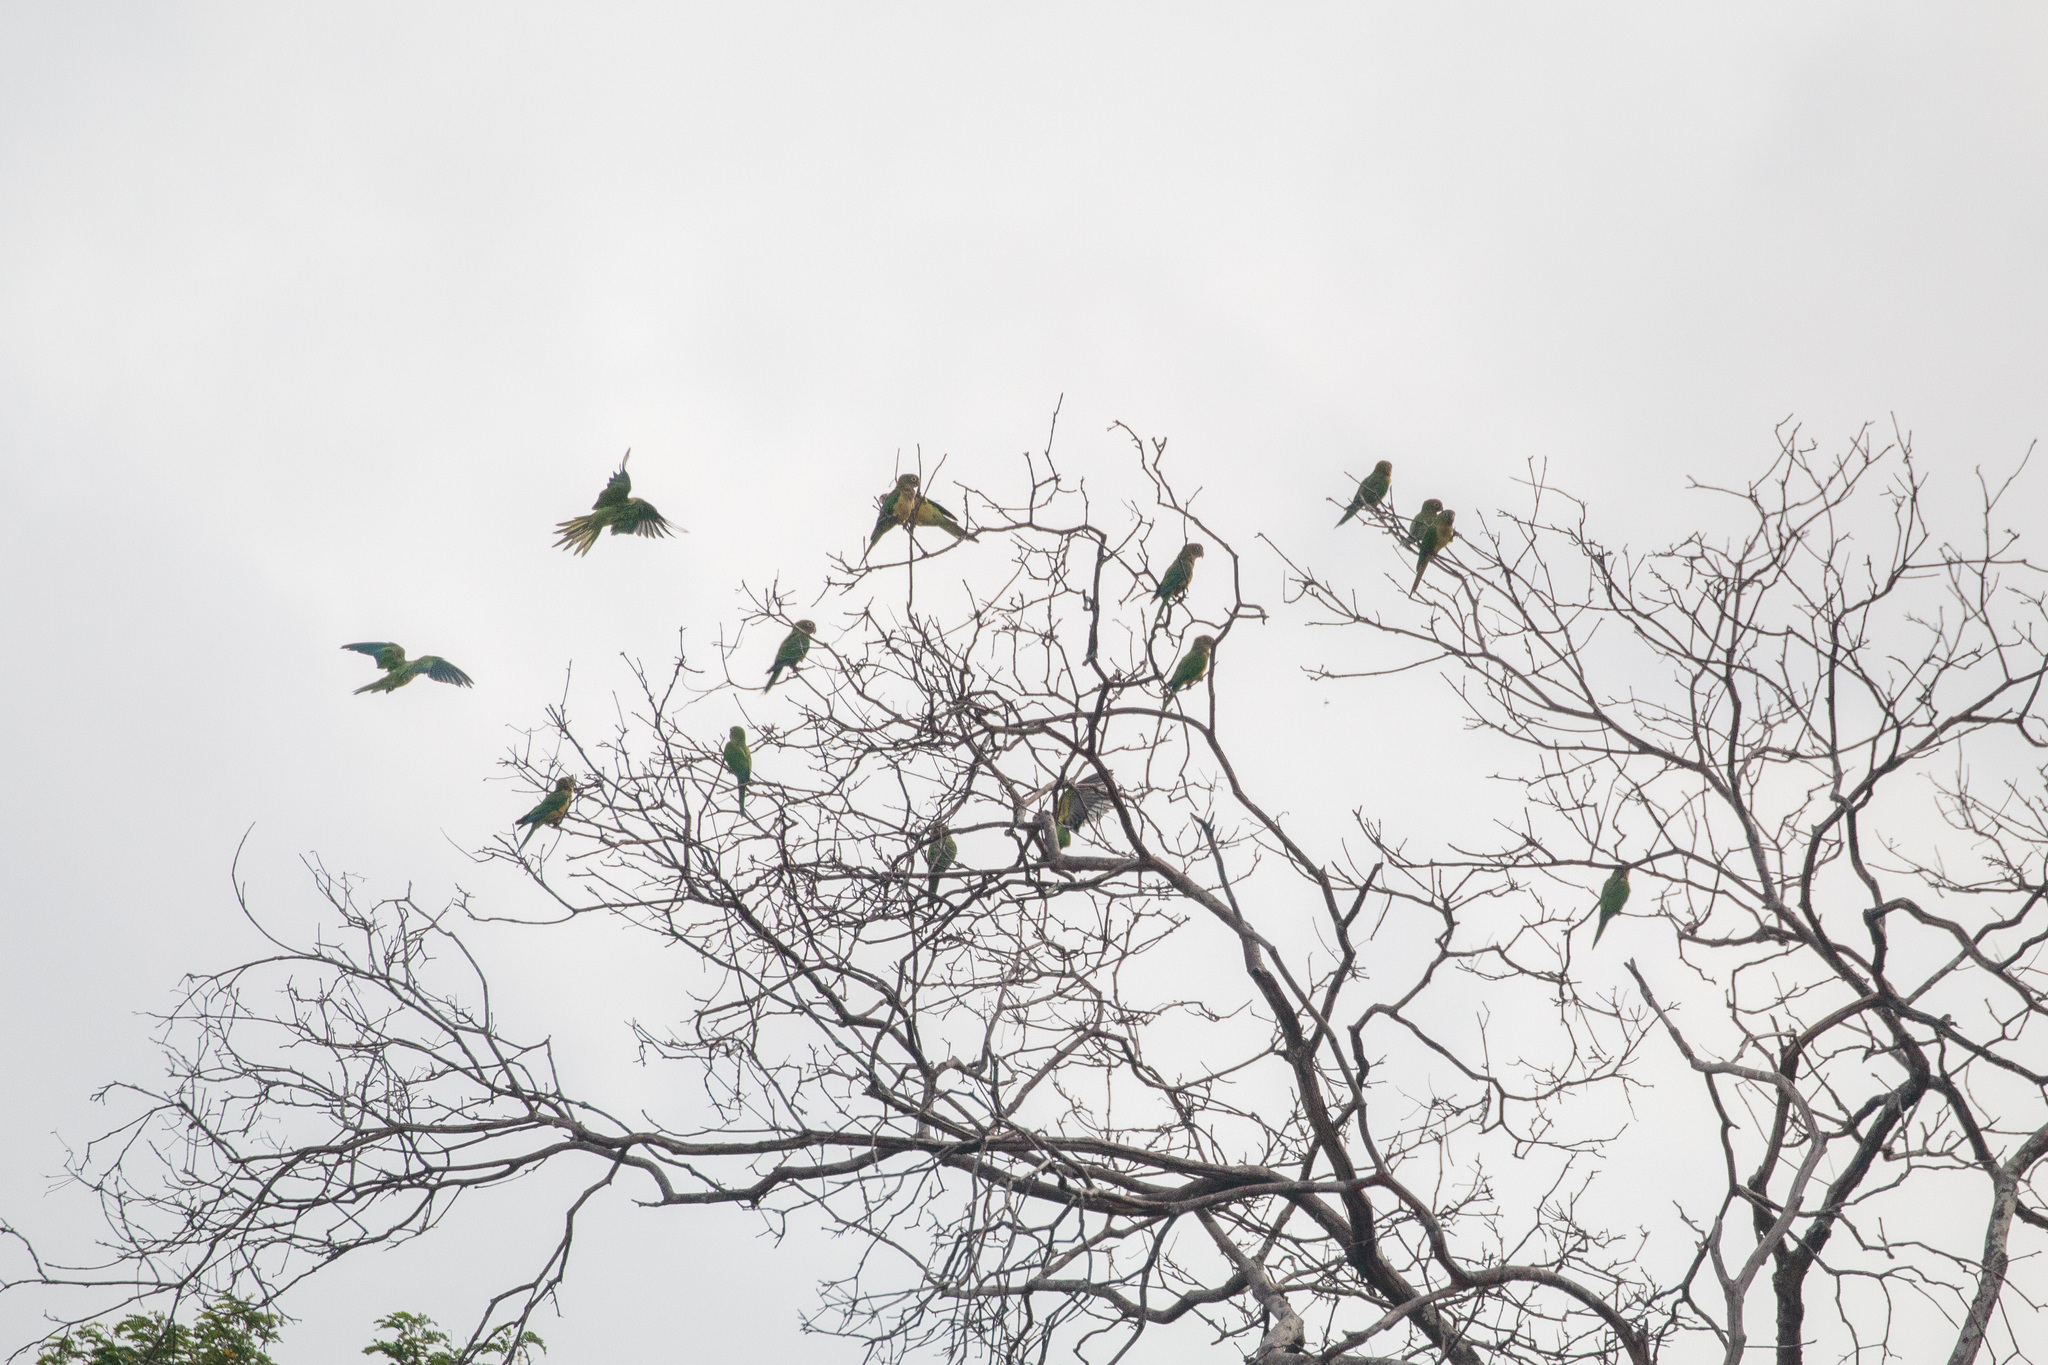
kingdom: Animalia
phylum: Chordata
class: Aves
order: Psittaciformes
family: Psittacidae
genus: Aratinga
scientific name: Aratinga cactorum
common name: Caatinga parakeet
